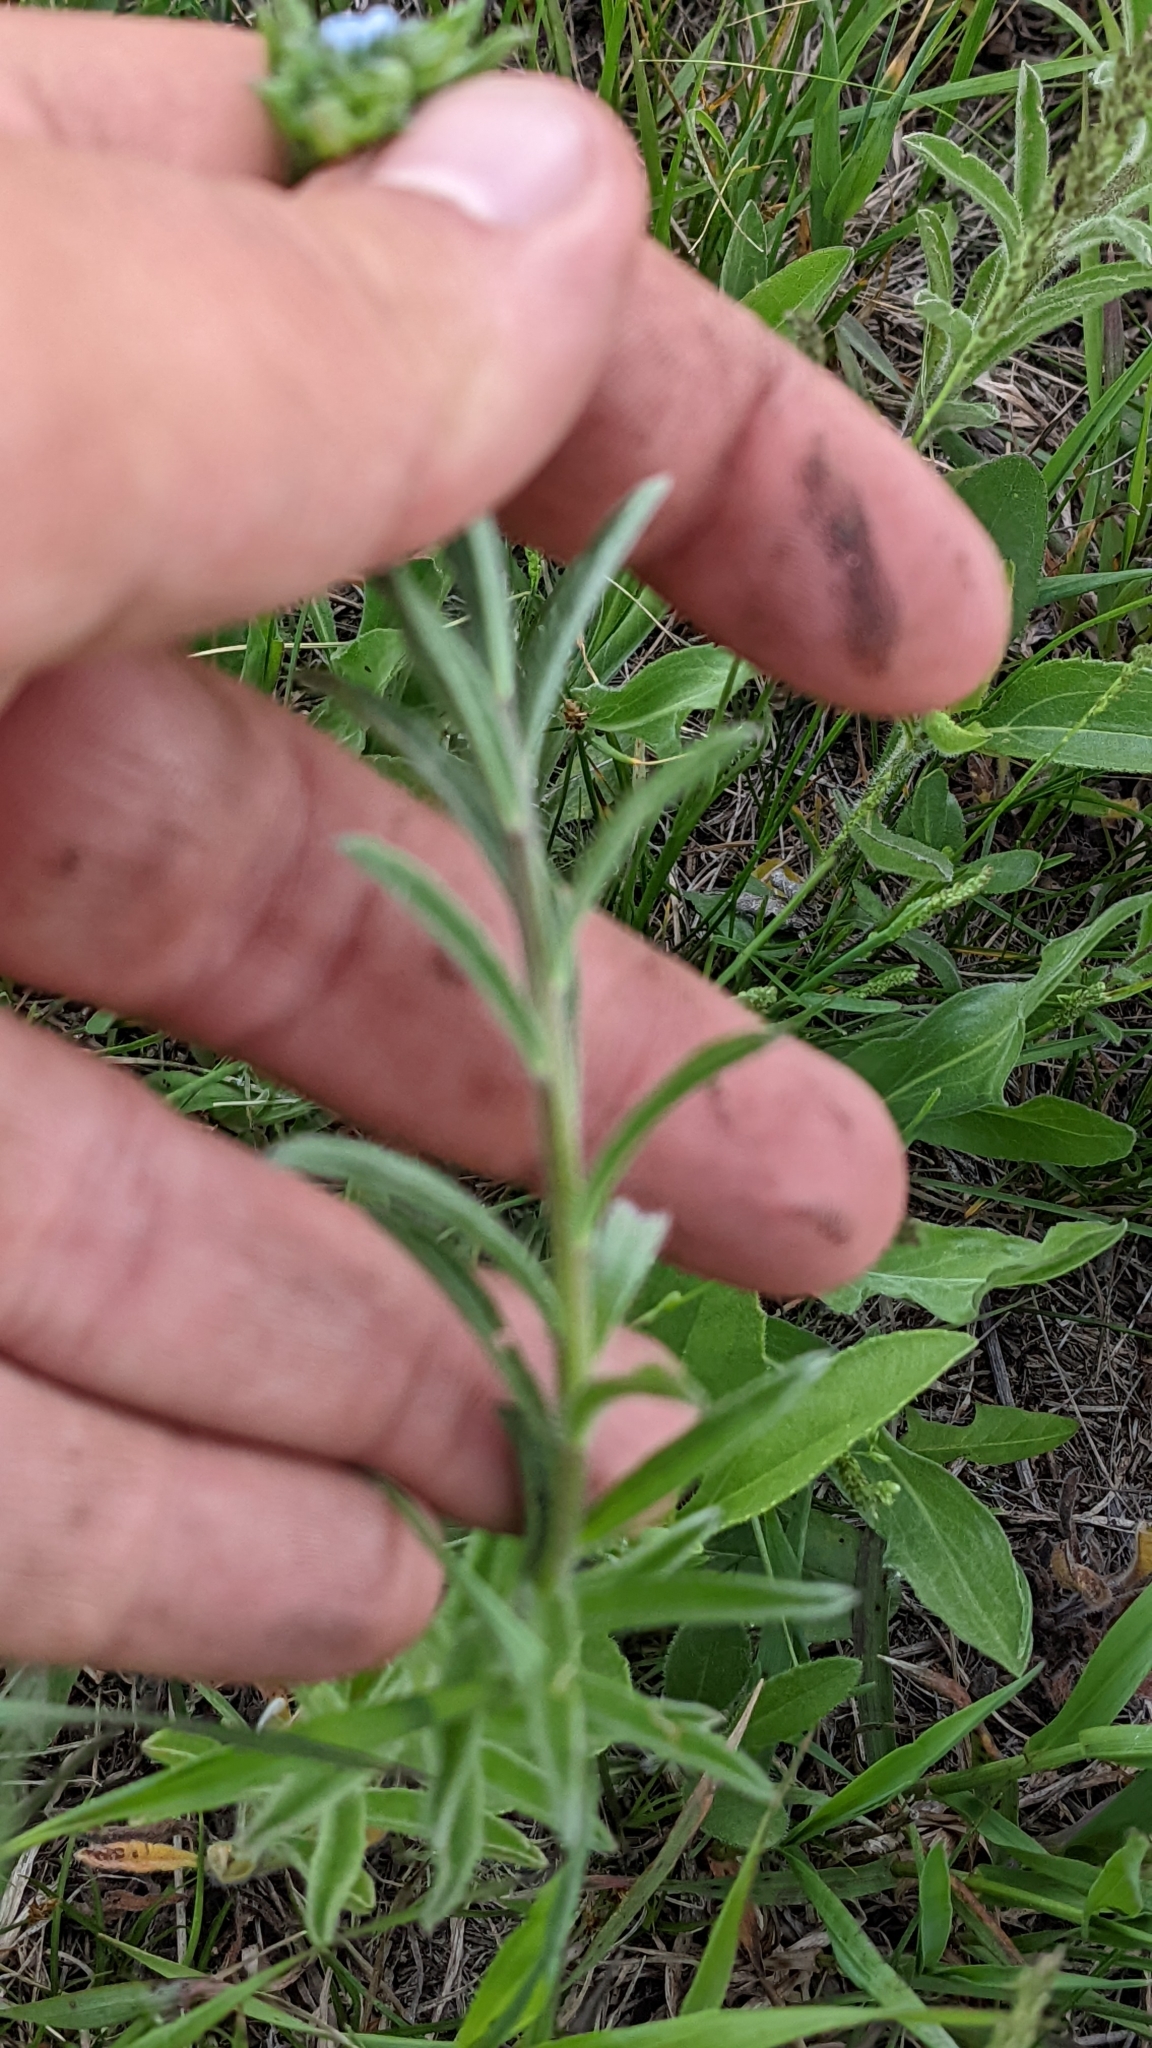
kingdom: Plantae
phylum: Tracheophyta
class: Magnoliopsida
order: Boraginales
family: Boraginaceae
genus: Lappula
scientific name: Lappula redowskii
